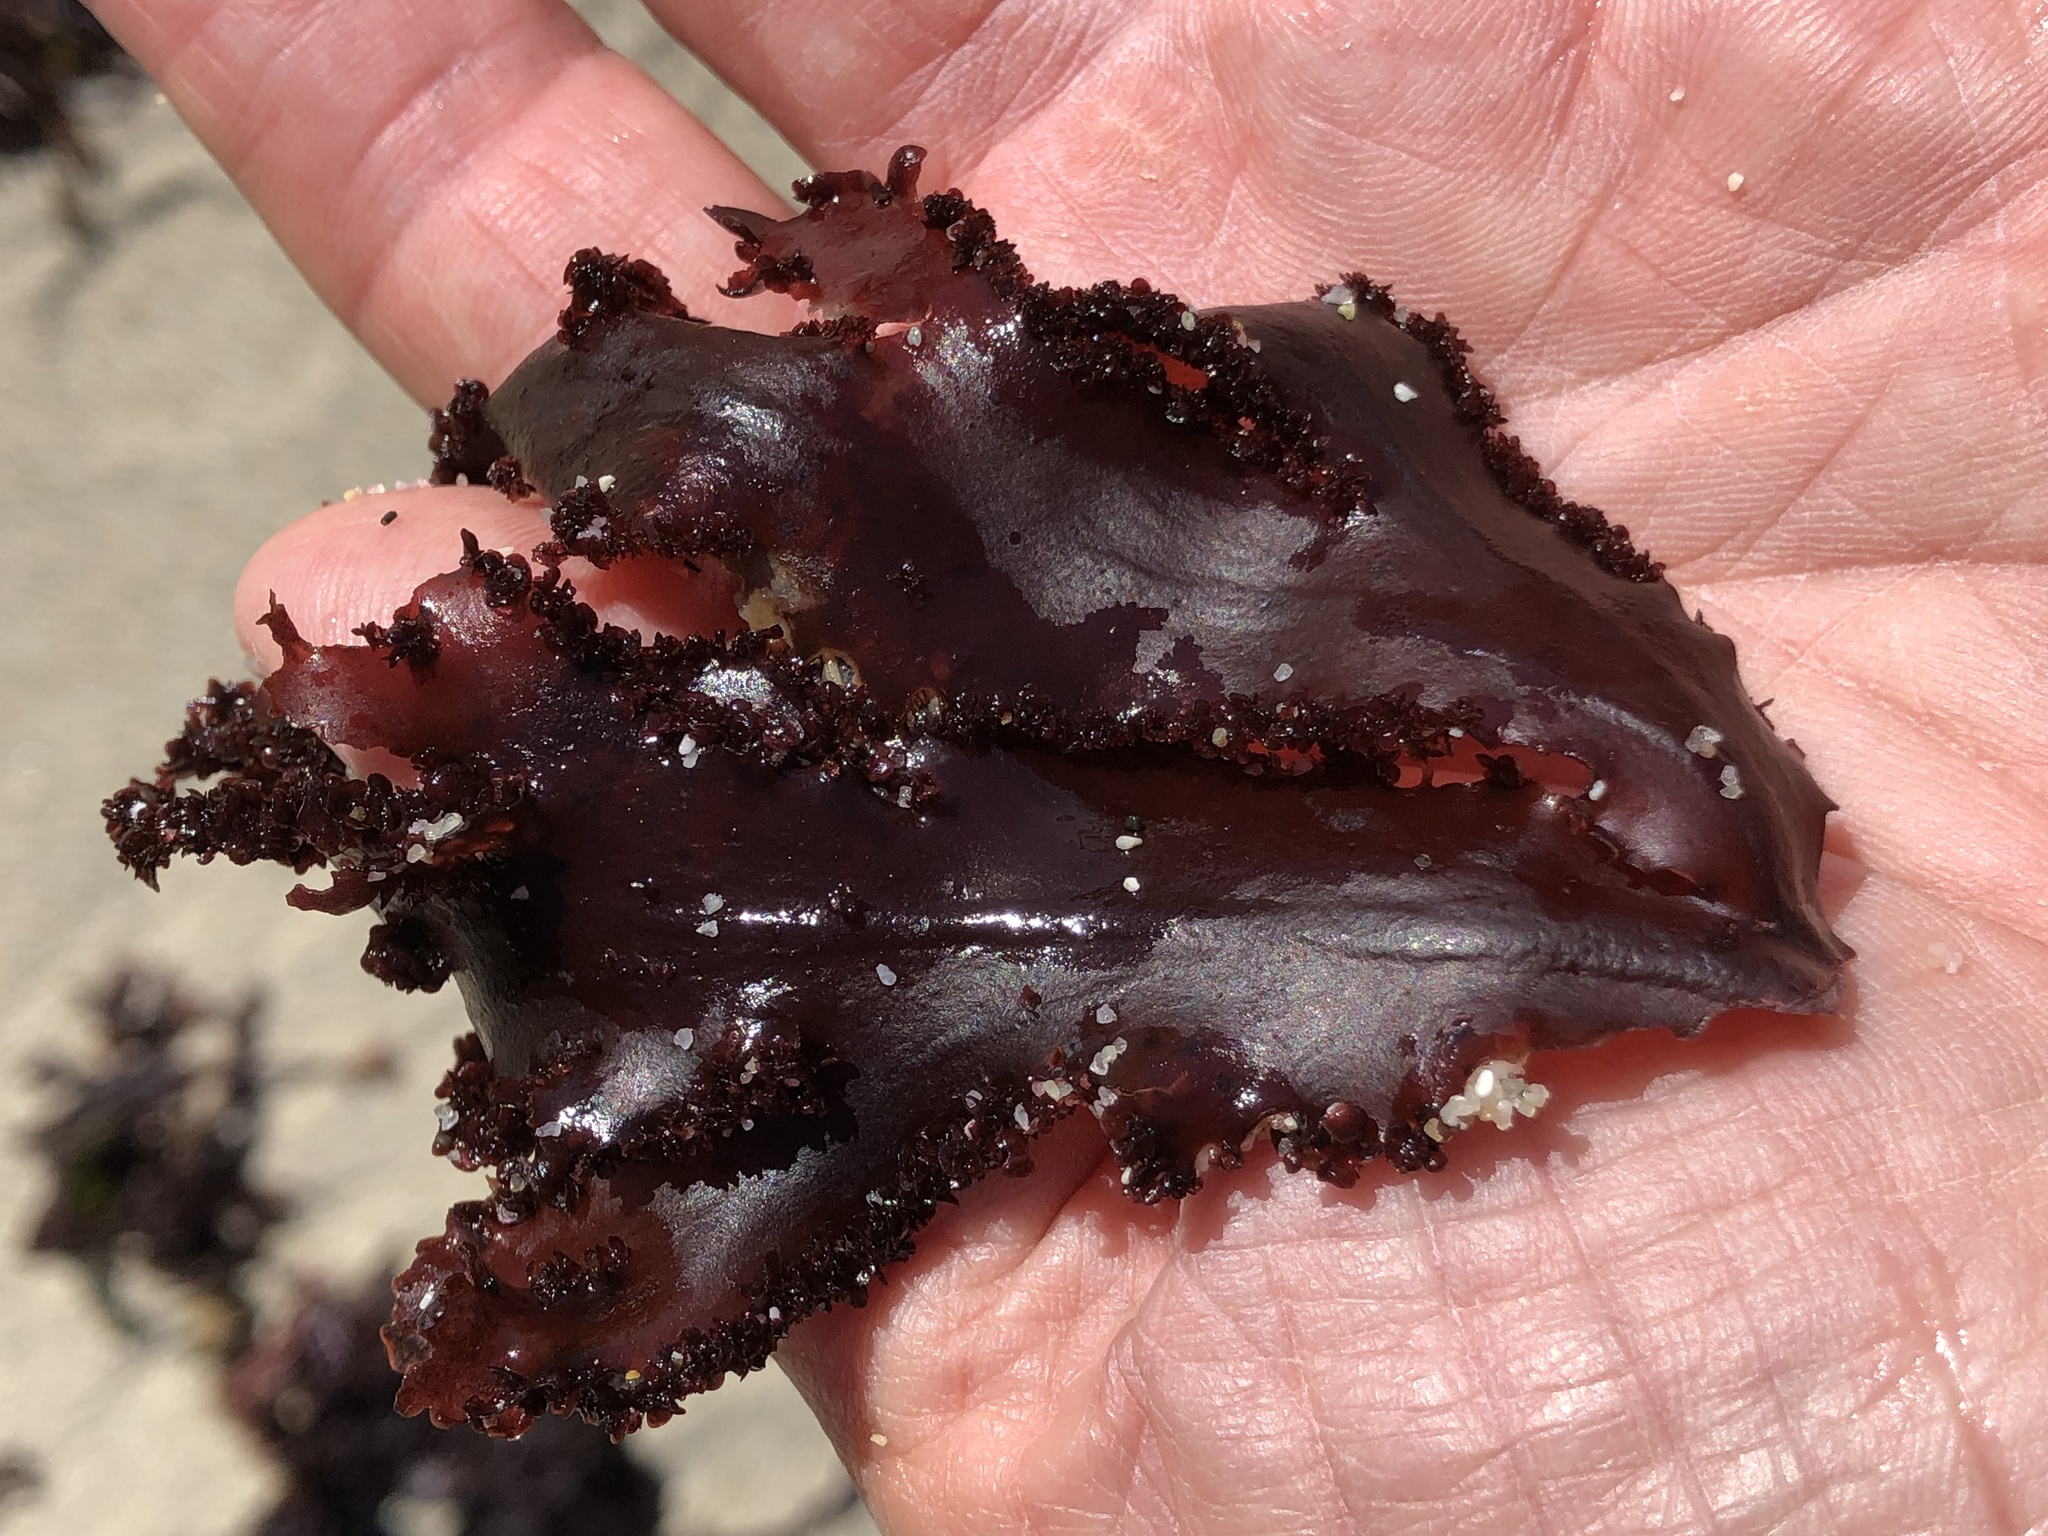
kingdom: Plantae
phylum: Rhodophyta
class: Florideophyceae
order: Ceramiales
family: Delesseriaceae
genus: Cryptopleura
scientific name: Cryptopleura ruprechtiana
